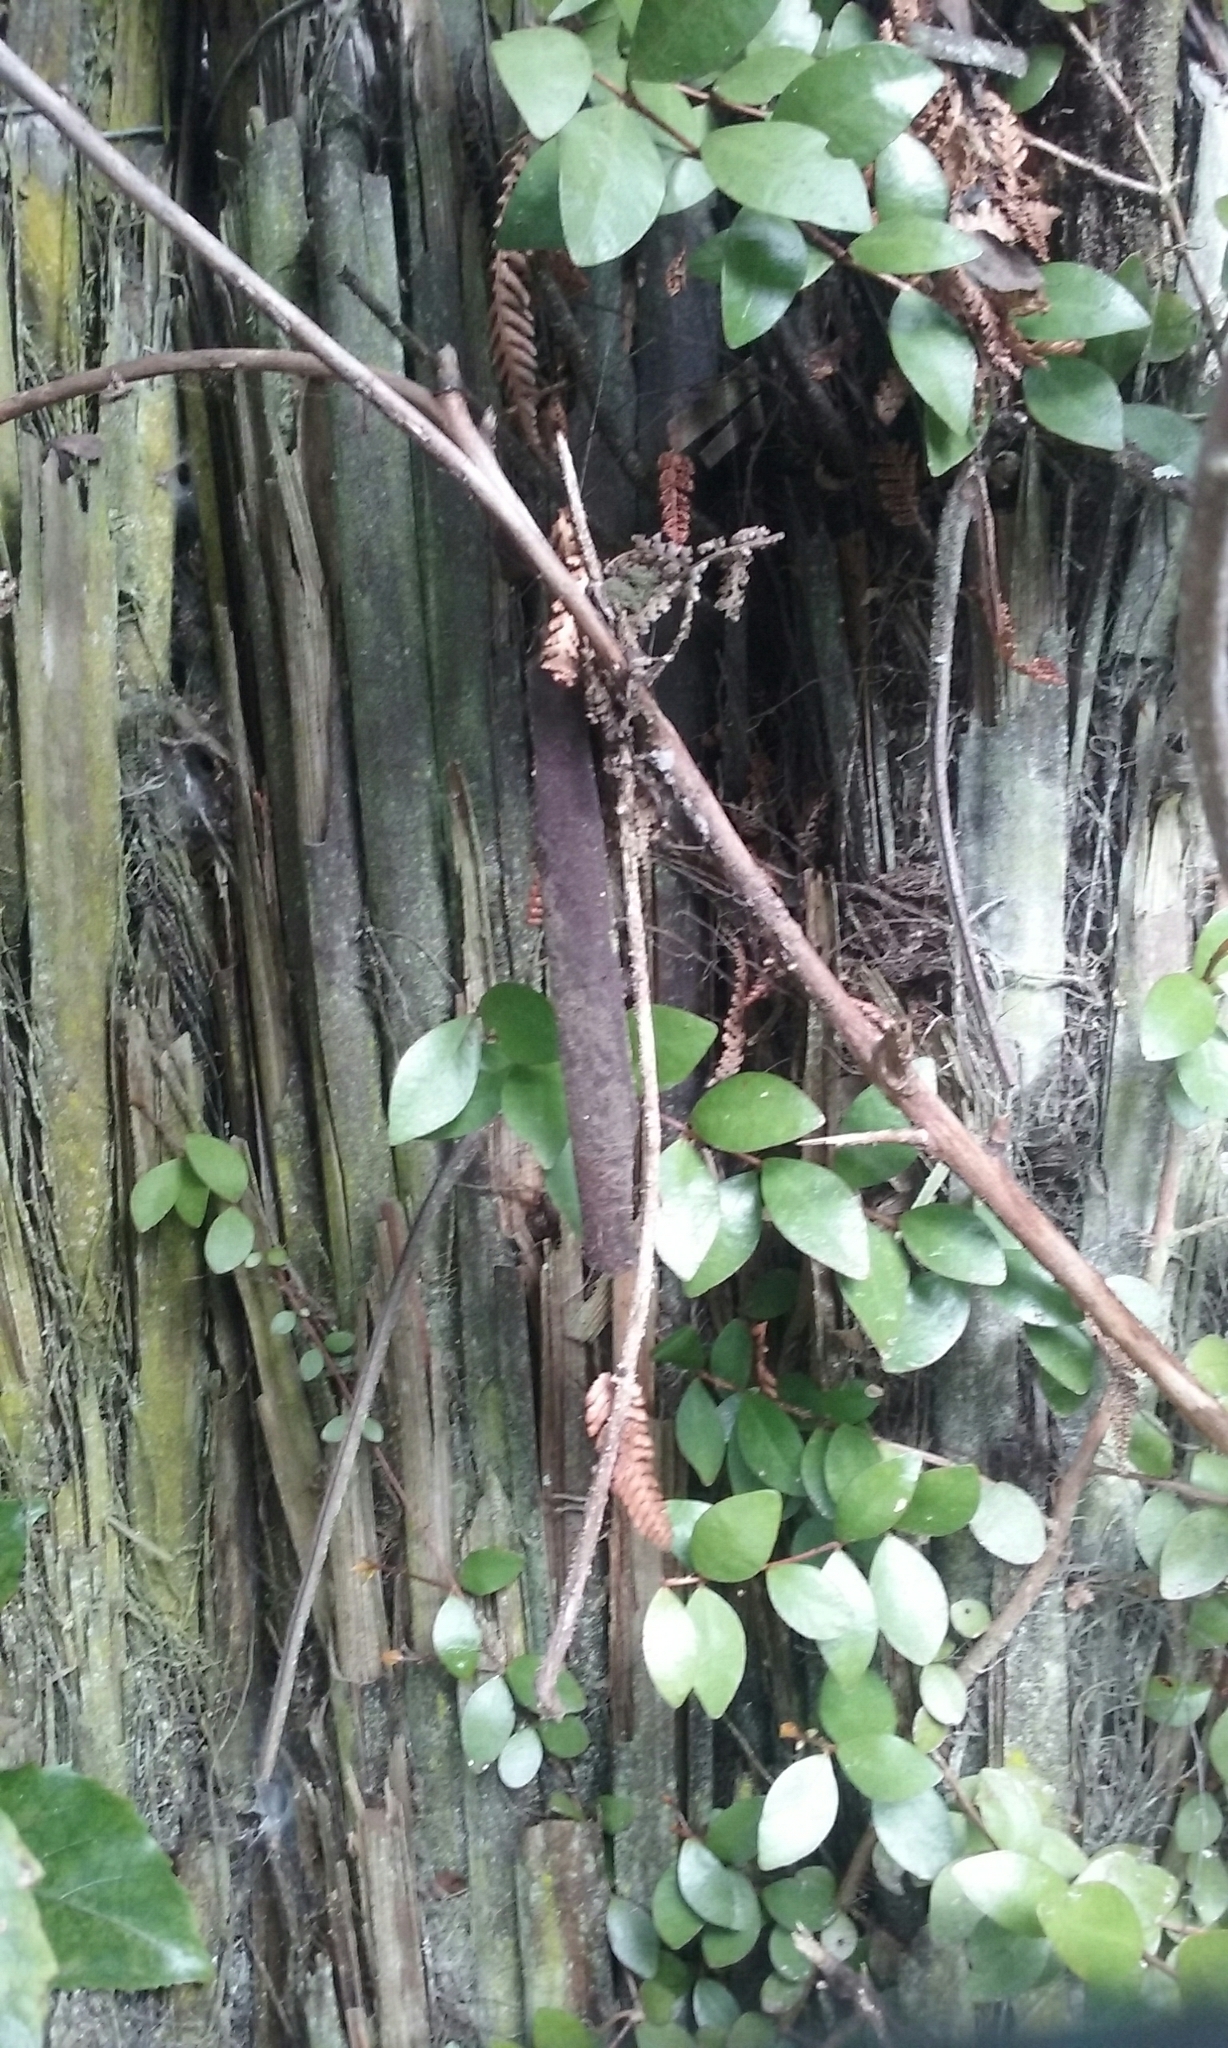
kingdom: Plantae
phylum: Tracheophyta
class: Magnoliopsida
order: Myrtales
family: Myrtaceae
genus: Metrosideros
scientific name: Metrosideros fulgens
